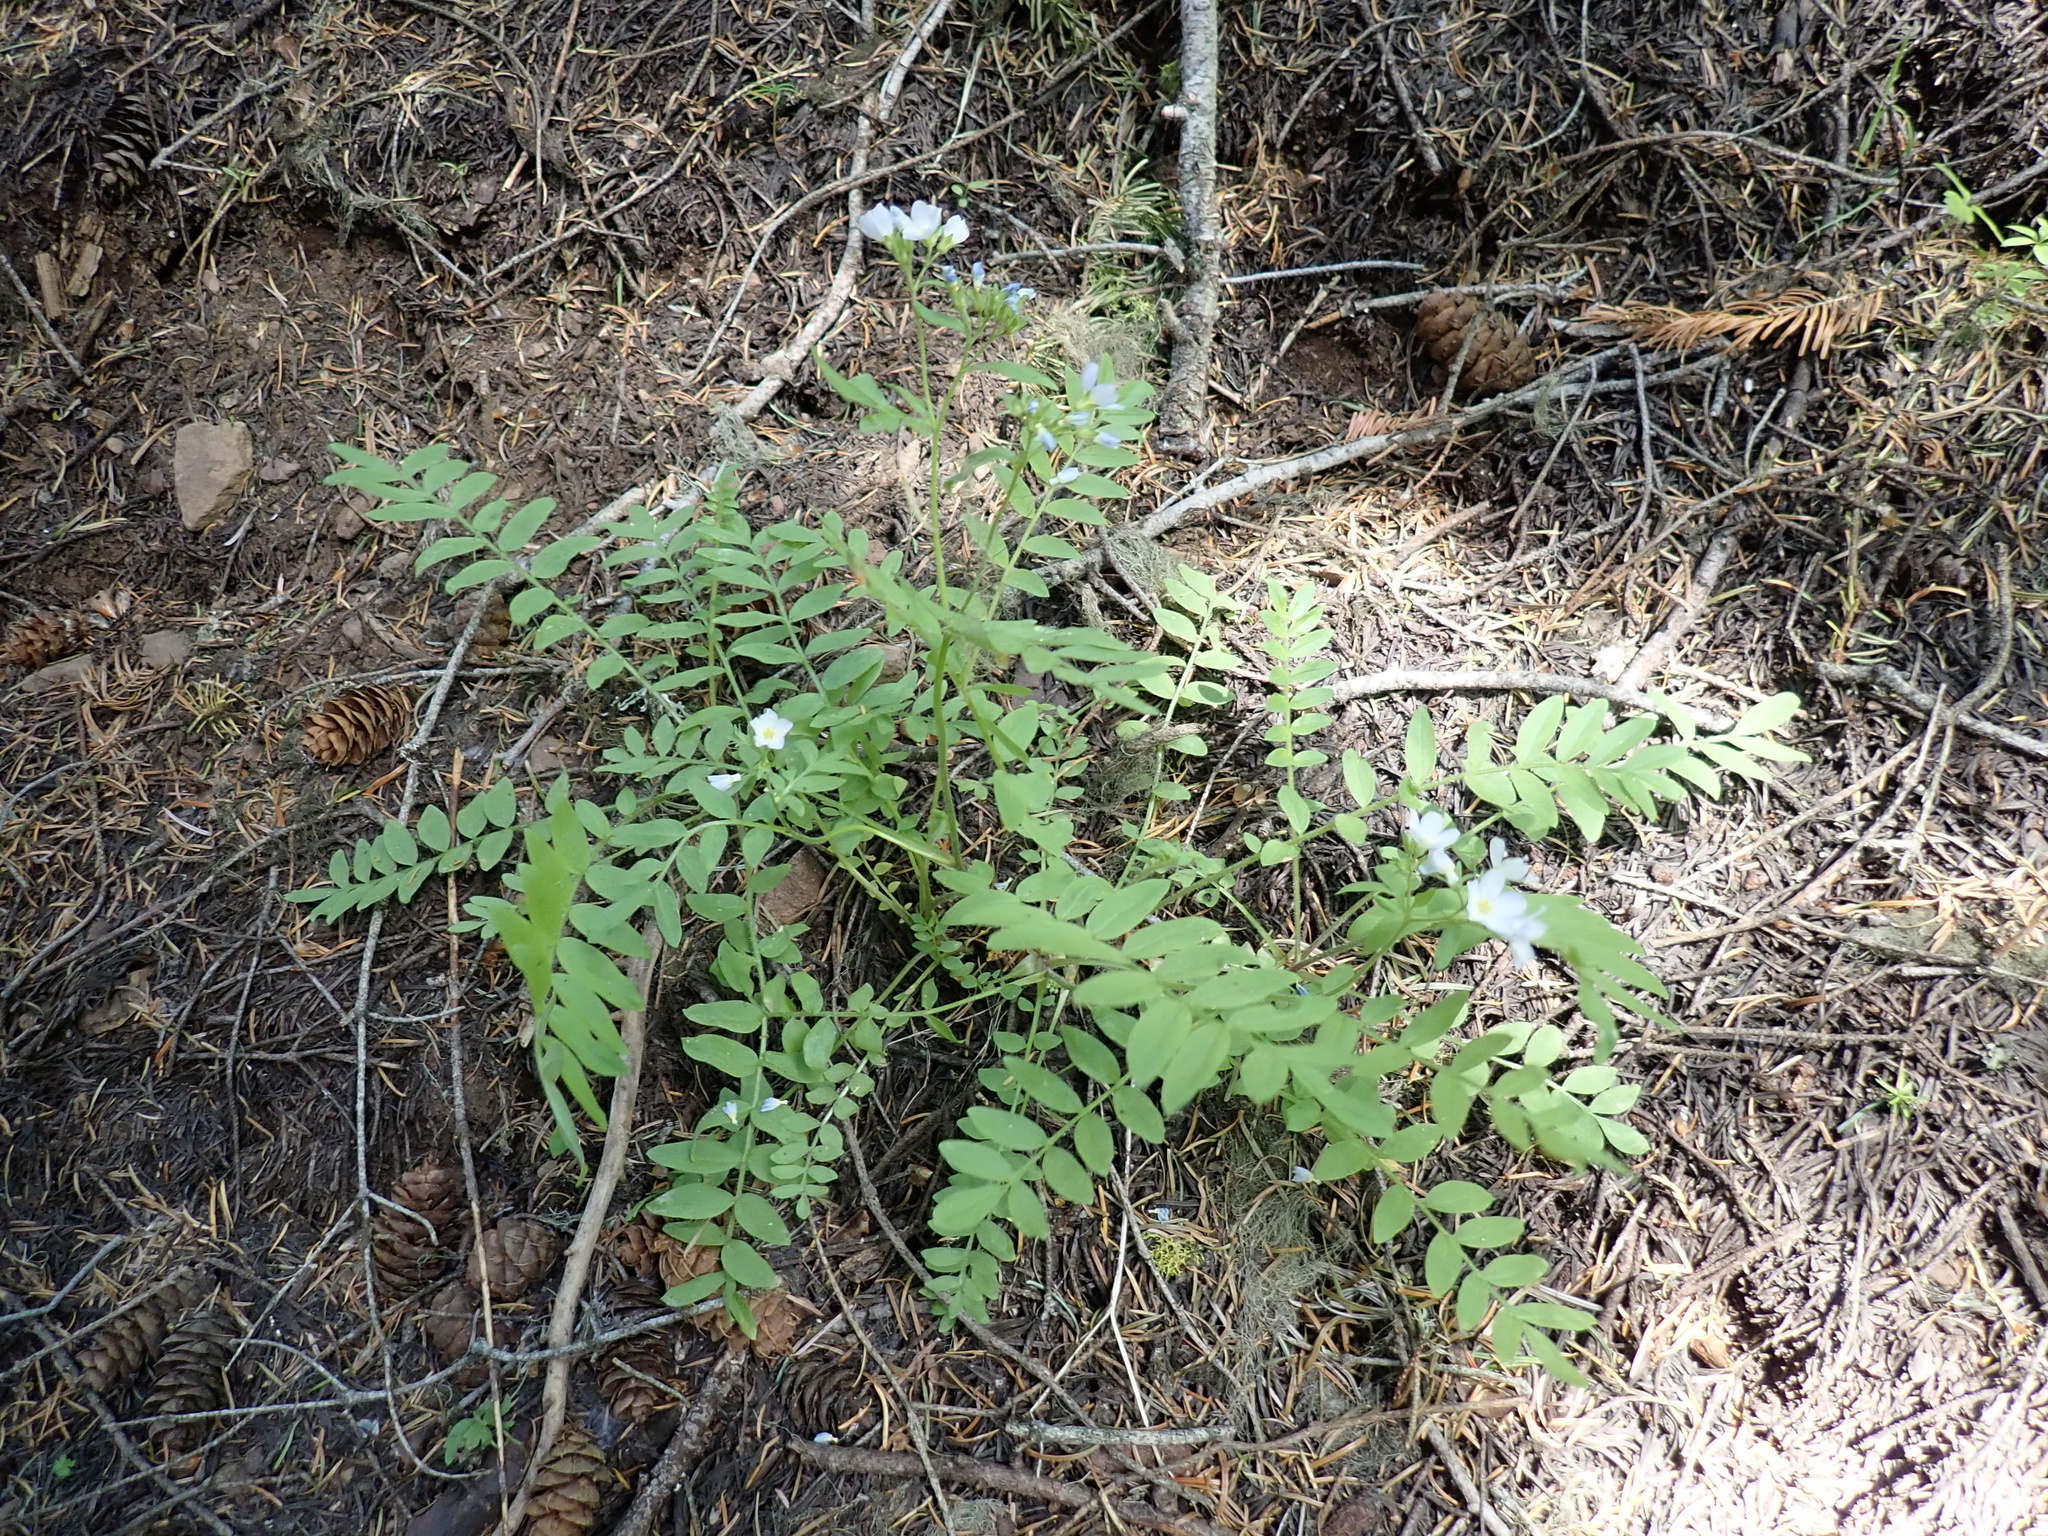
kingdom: Plantae
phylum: Tracheophyta
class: Magnoliopsida
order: Ericales
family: Polemoniaceae
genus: Polemonium
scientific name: Polemonium californicum
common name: California jacob's ladder
